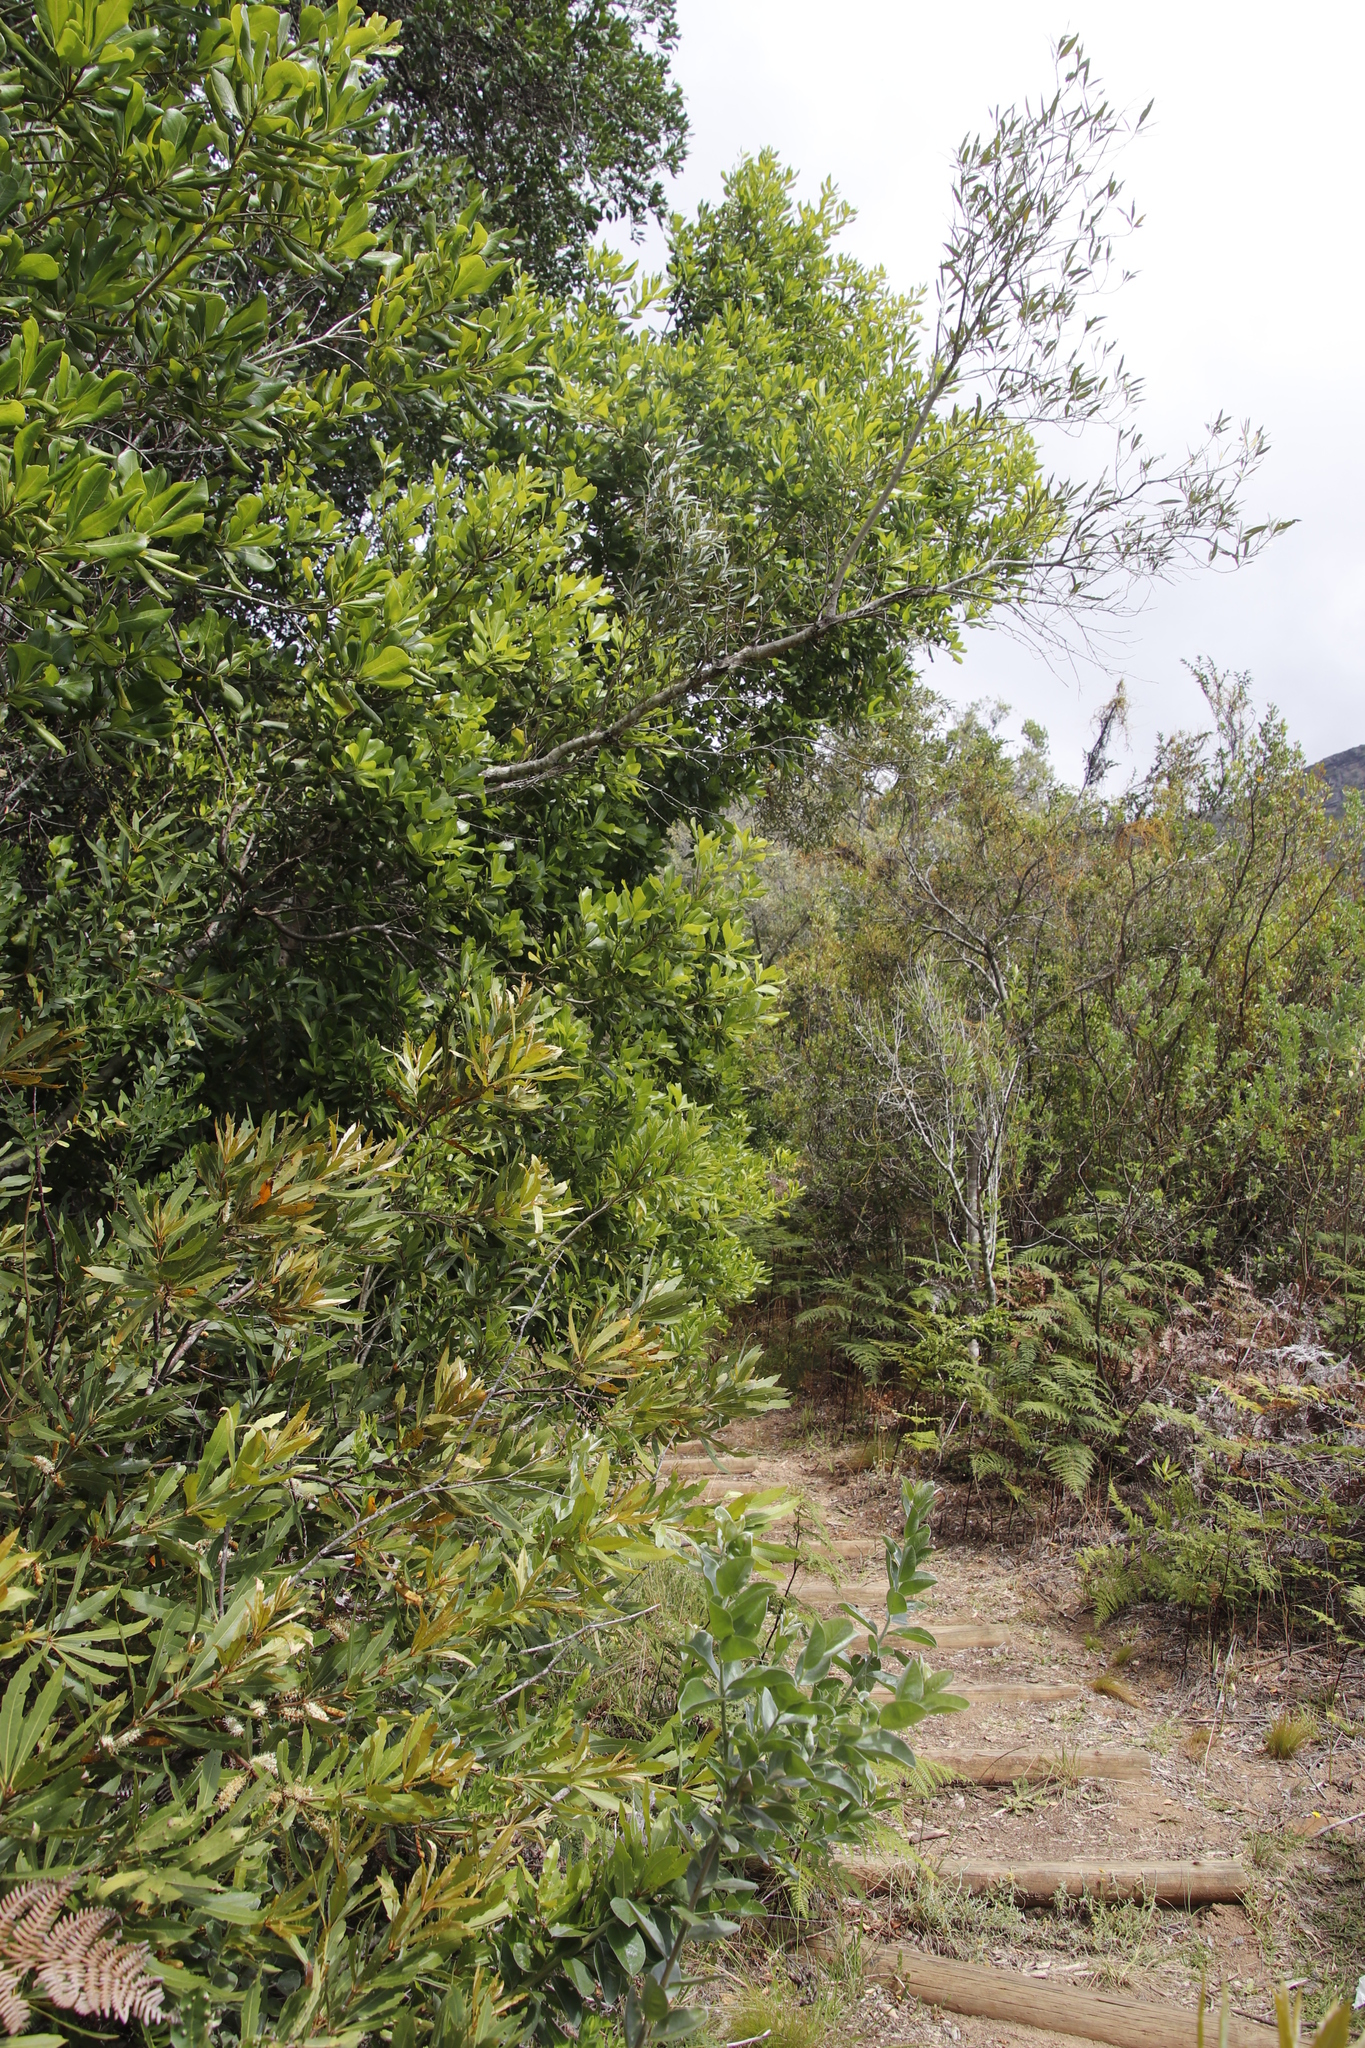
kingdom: Plantae
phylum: Tracheophyta
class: Magnoliopsida
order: Apiales
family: Pittosporaceae
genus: Pittosporum
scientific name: Pittosporum viridiflorum
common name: Cape cheesewood
